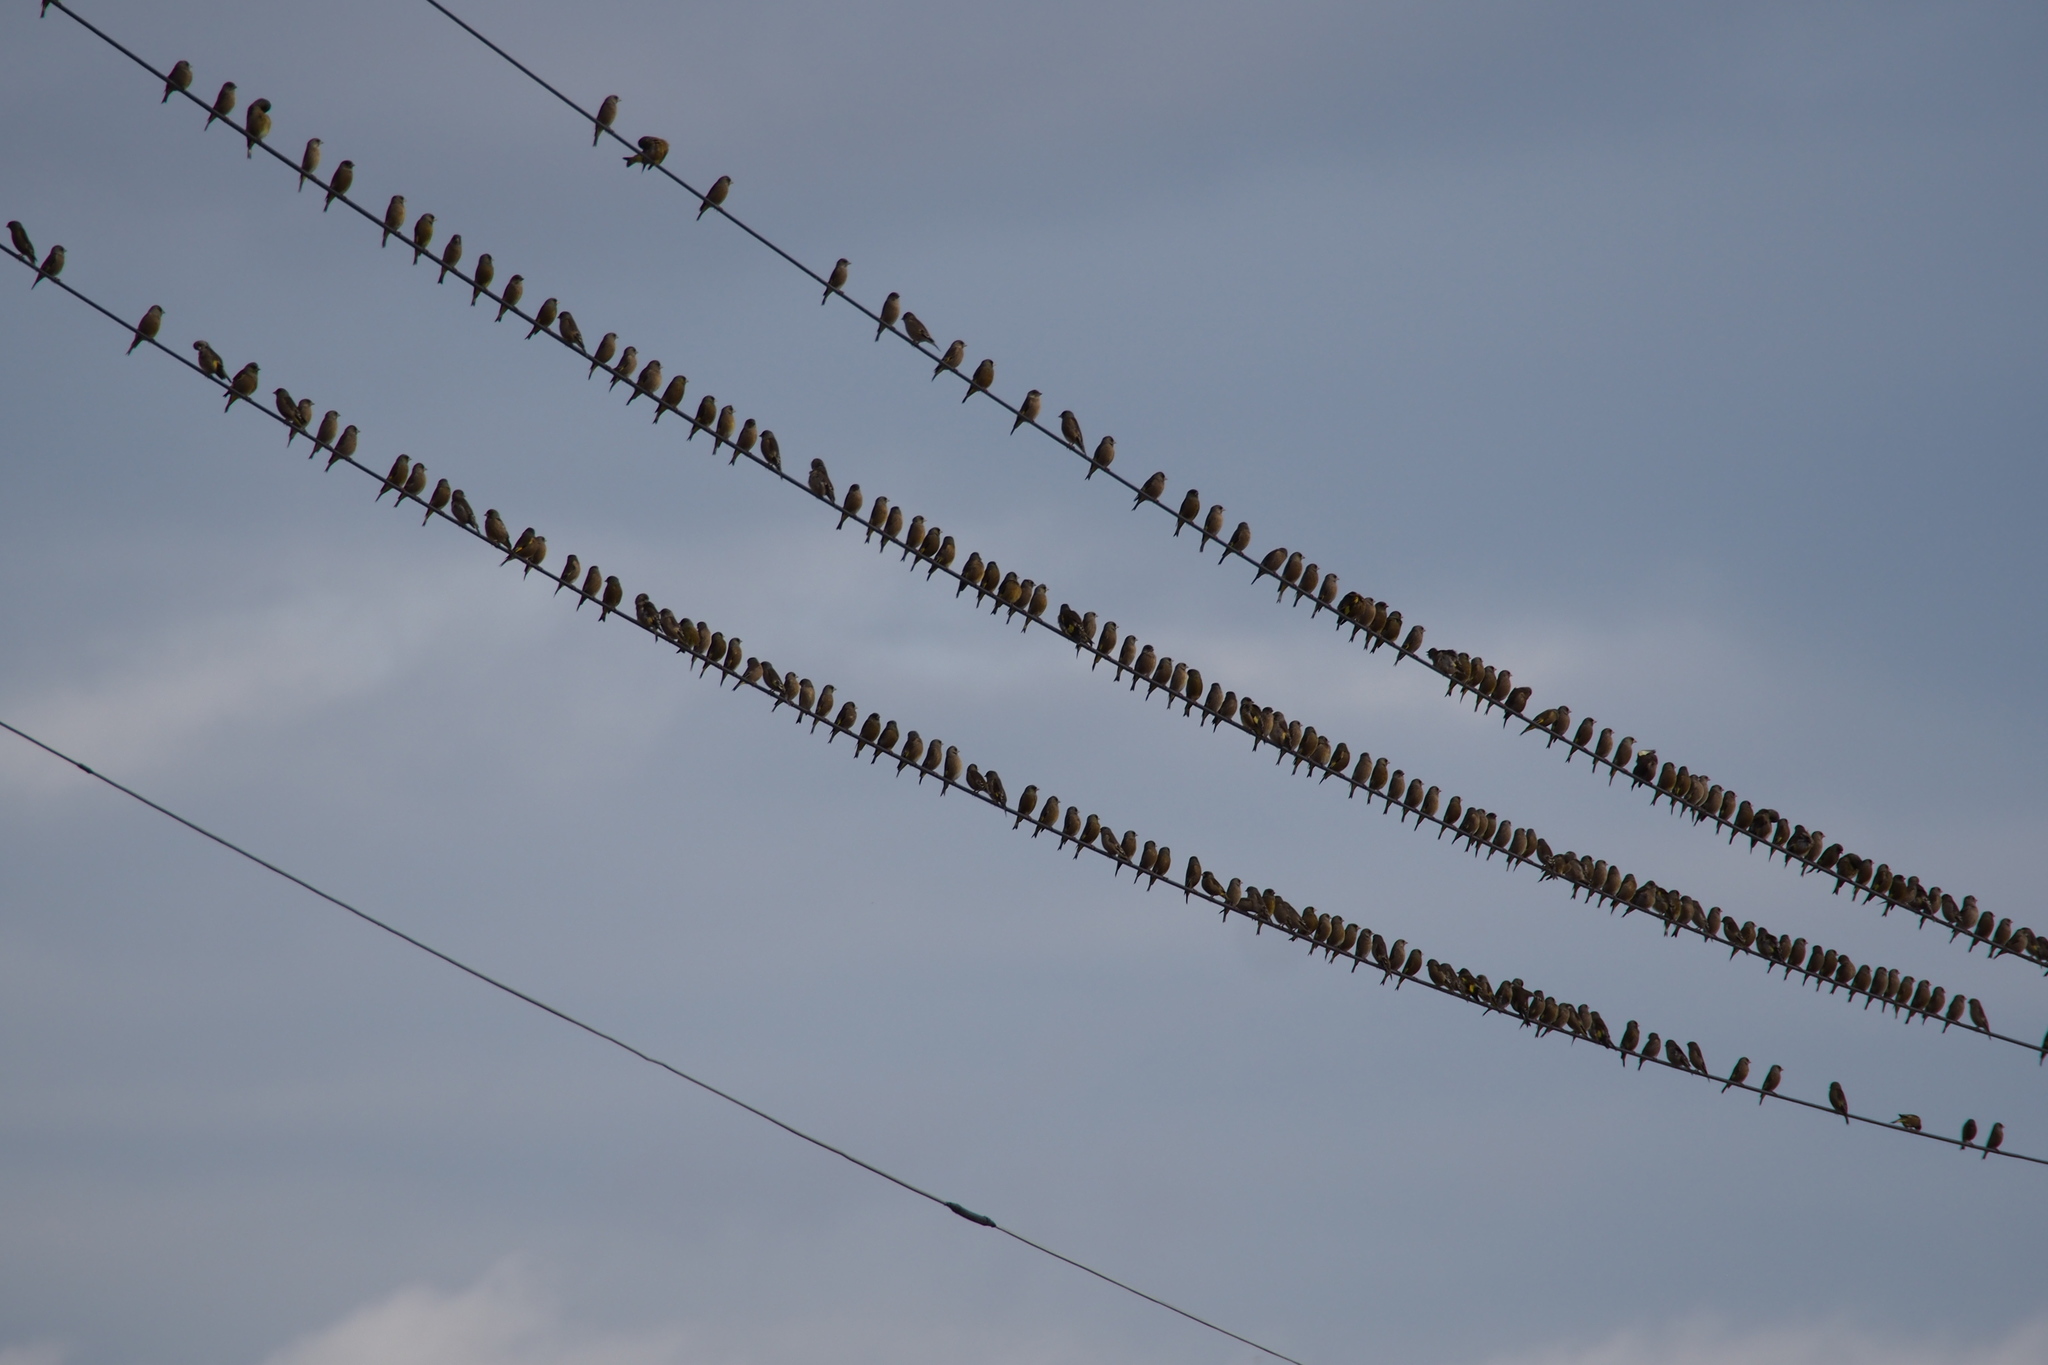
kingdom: Plantae
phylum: Tracheophyta
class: Liliopsida
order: Poales
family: Poaceae
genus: Chloris
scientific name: Chloris sinica
